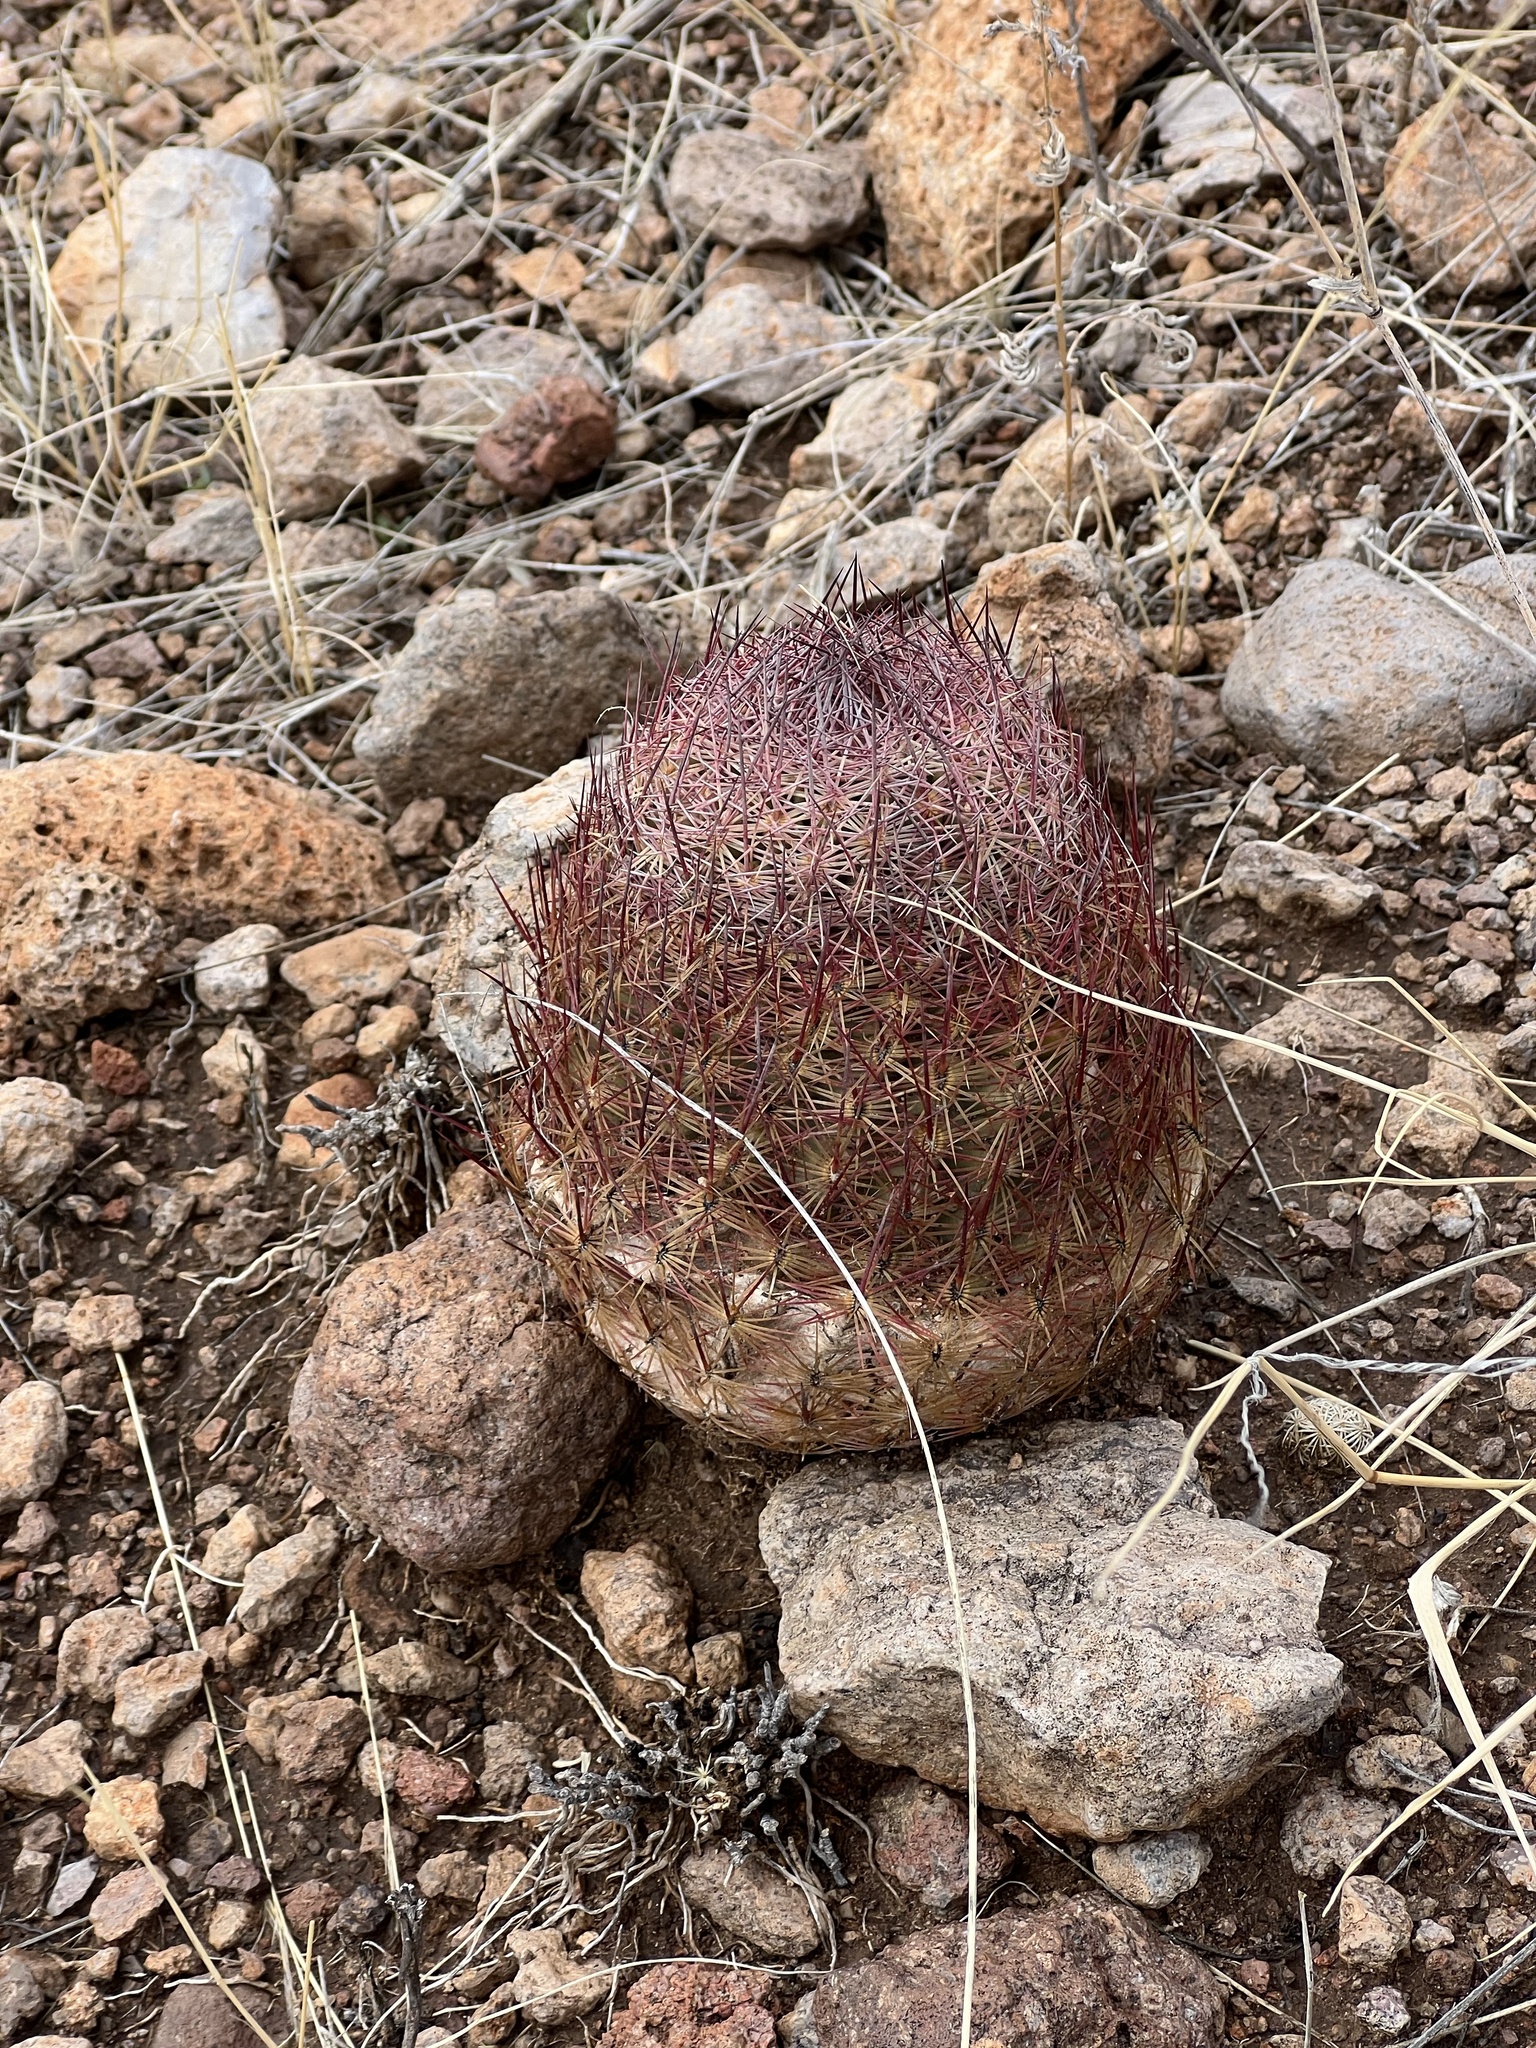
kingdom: Plantae
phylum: Tracheophyta
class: Magnoliopsida
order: Caryophyllales
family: Cactaceae
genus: Sclerocactus
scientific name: Sclerocactus johnsonii
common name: Eight-spine fishhook cactus
